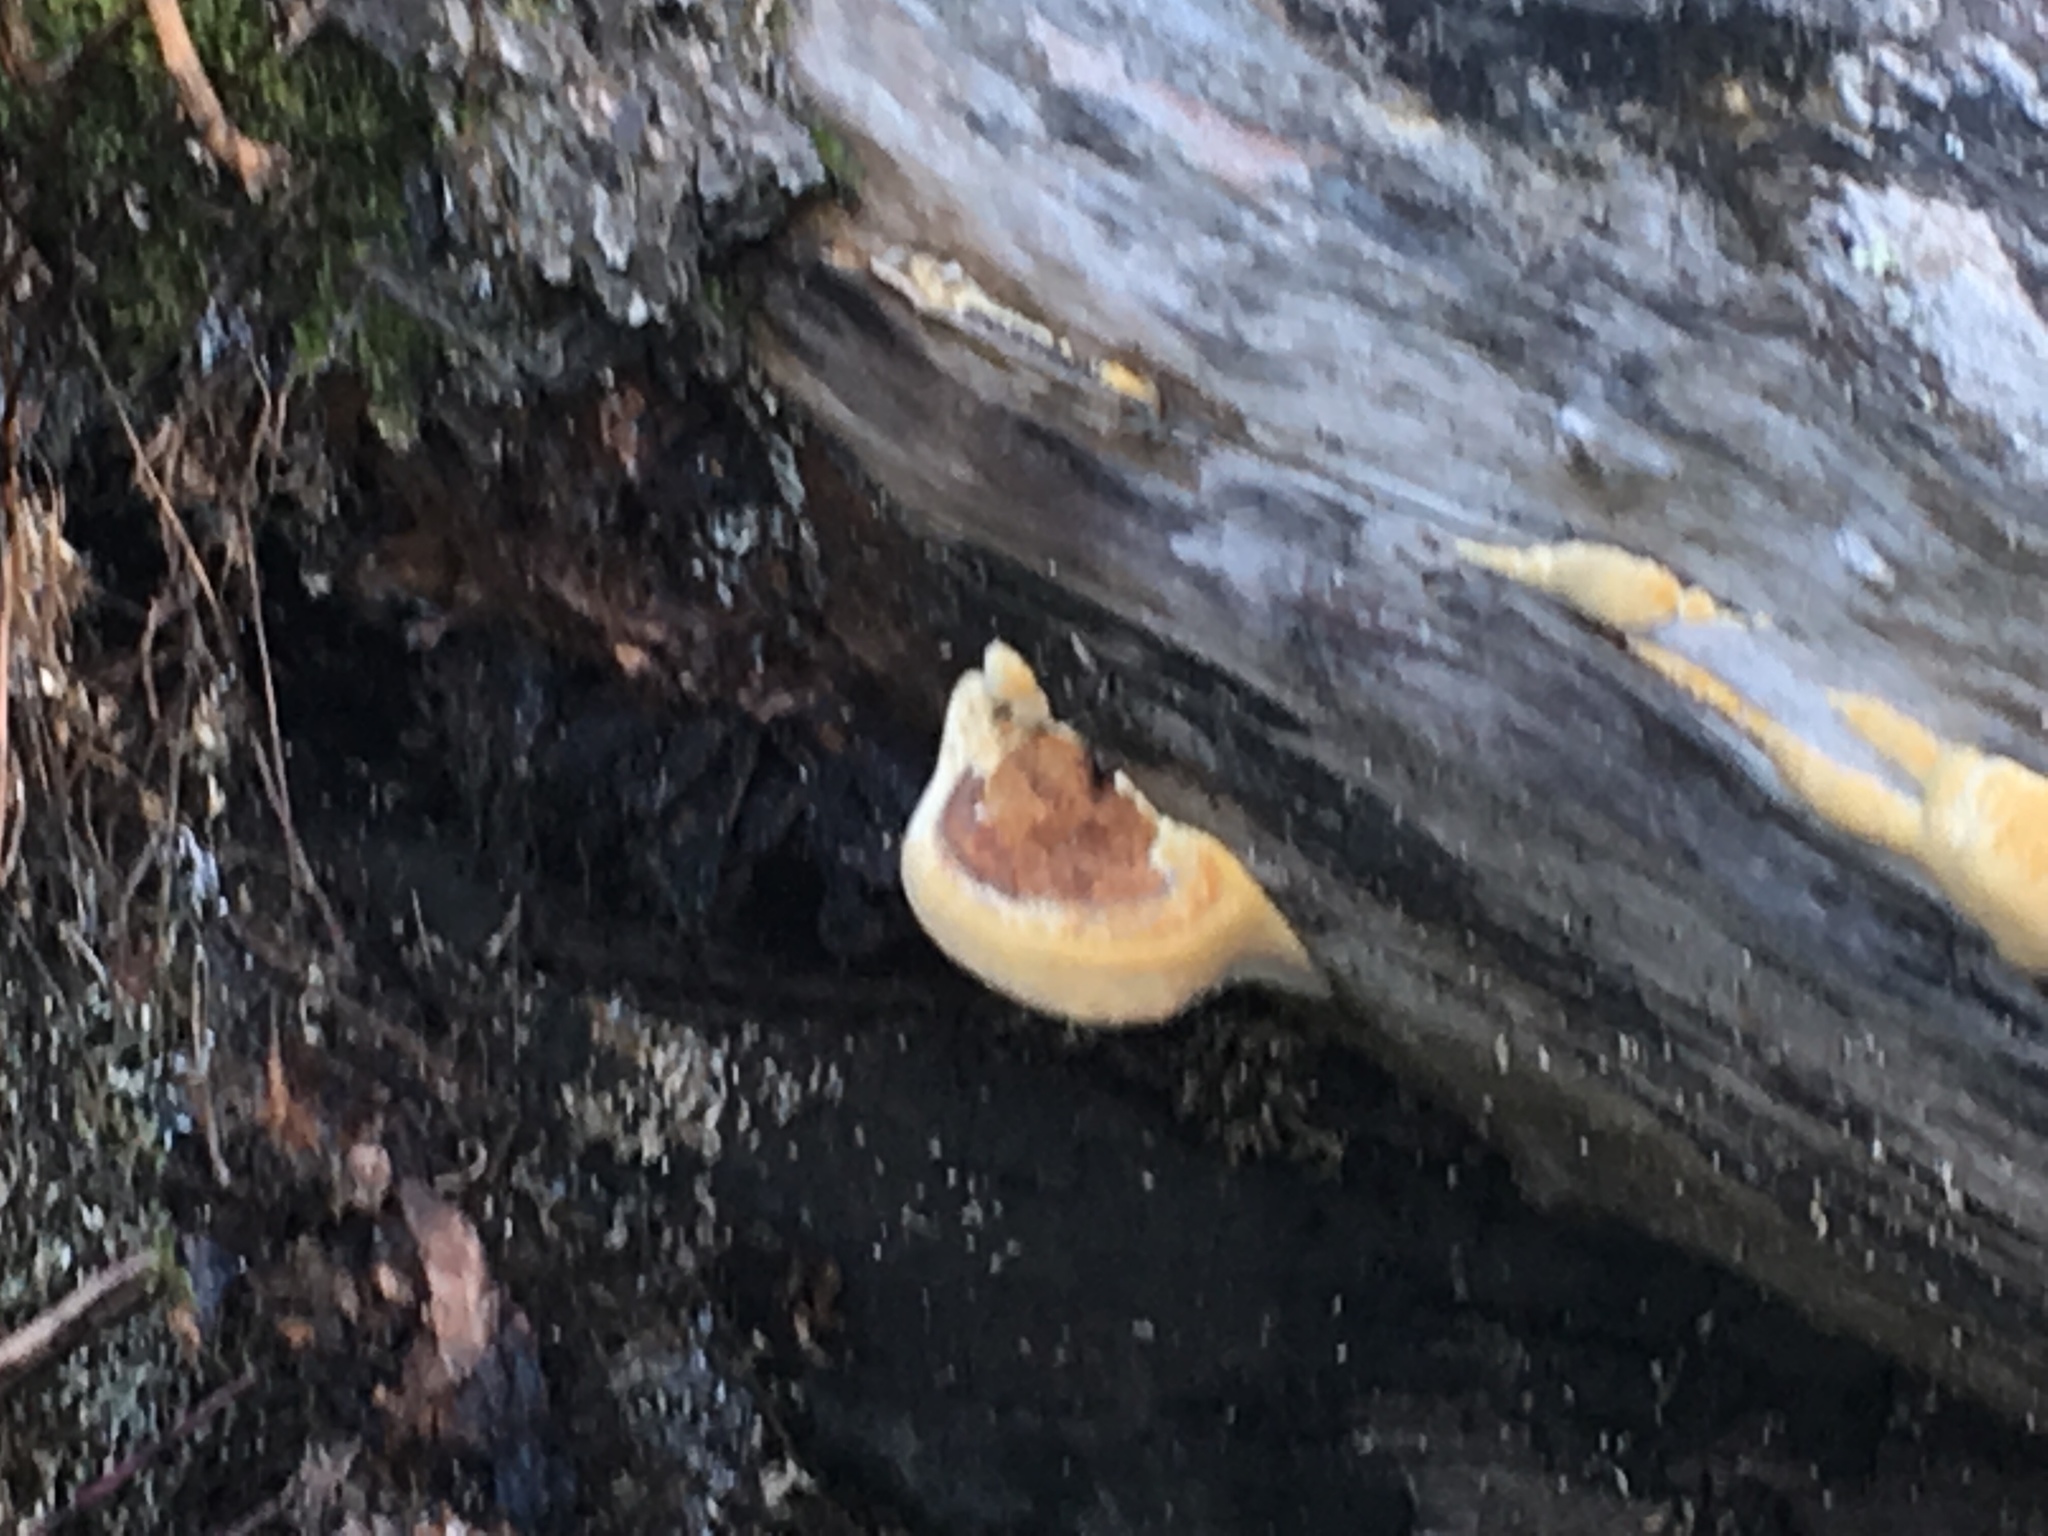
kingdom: Fungi
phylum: Basidiomycota
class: Agaricomycetes
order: Hymenochaetales
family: Hymenochaetaceae
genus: Xanthoporia
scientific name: Xanthoporia radiata
